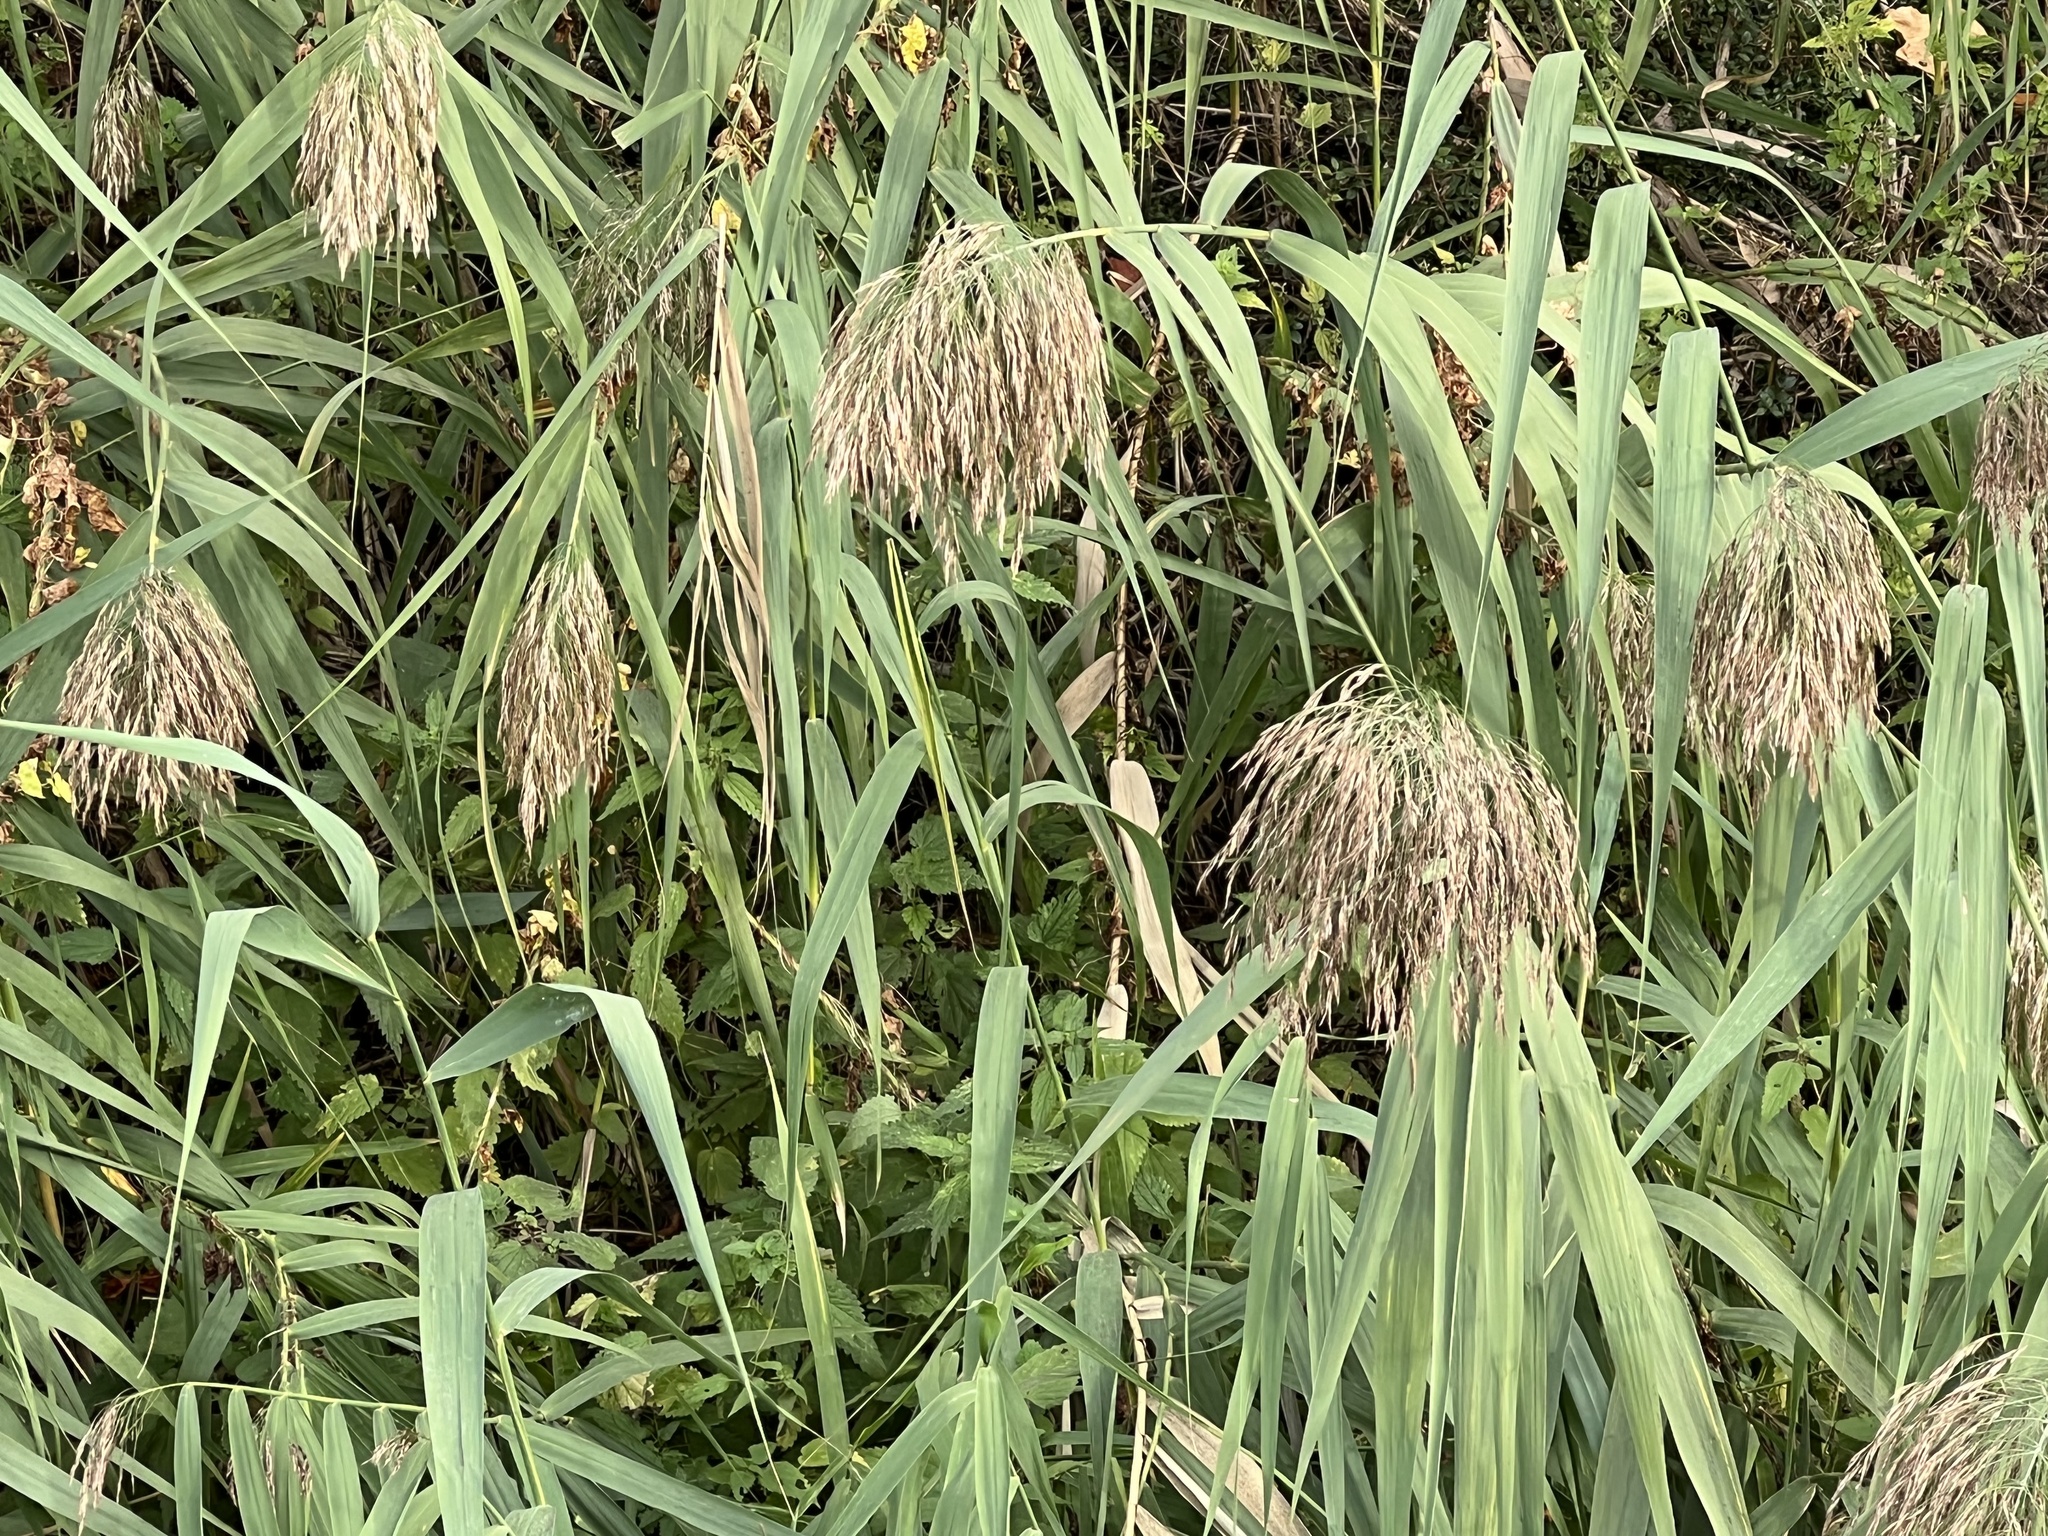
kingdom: Plantae
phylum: Tracheophyta
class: Liliopsida
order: Poales
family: Poaceae
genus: Phragmites
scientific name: Phragmites australis
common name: Common reed
